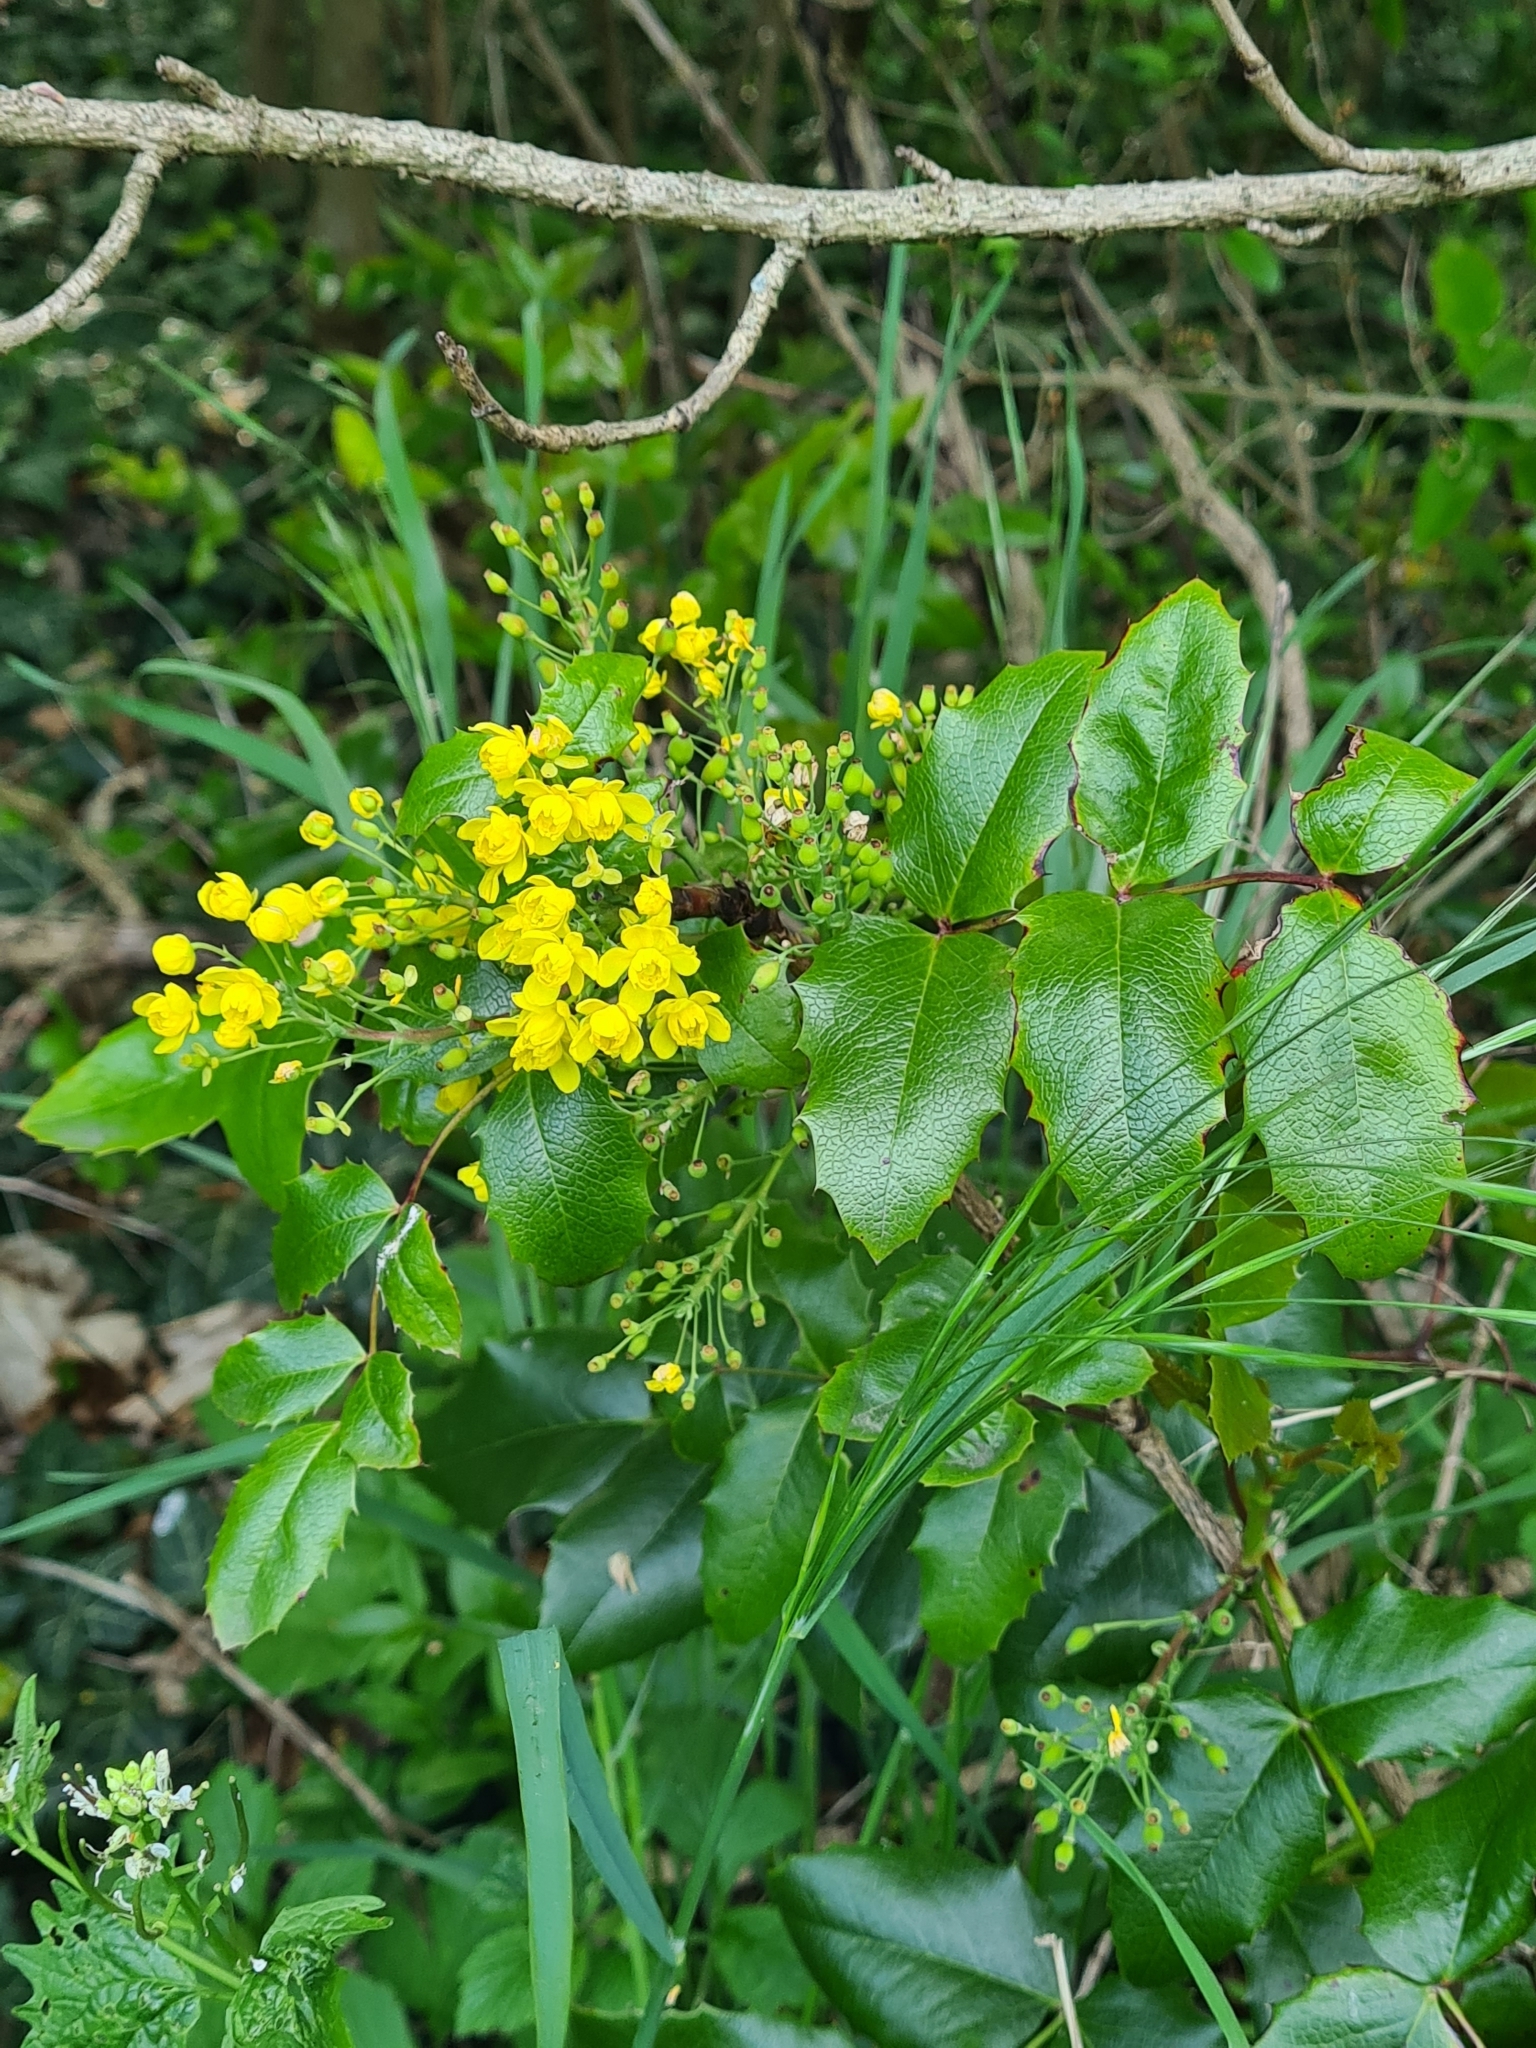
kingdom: Plantae
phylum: Tracheophyta
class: Magnoliopsida
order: Ranunculales
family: Berberidaceae
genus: Mahonia
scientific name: Mahonia aquifolium
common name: Oregon-grape
